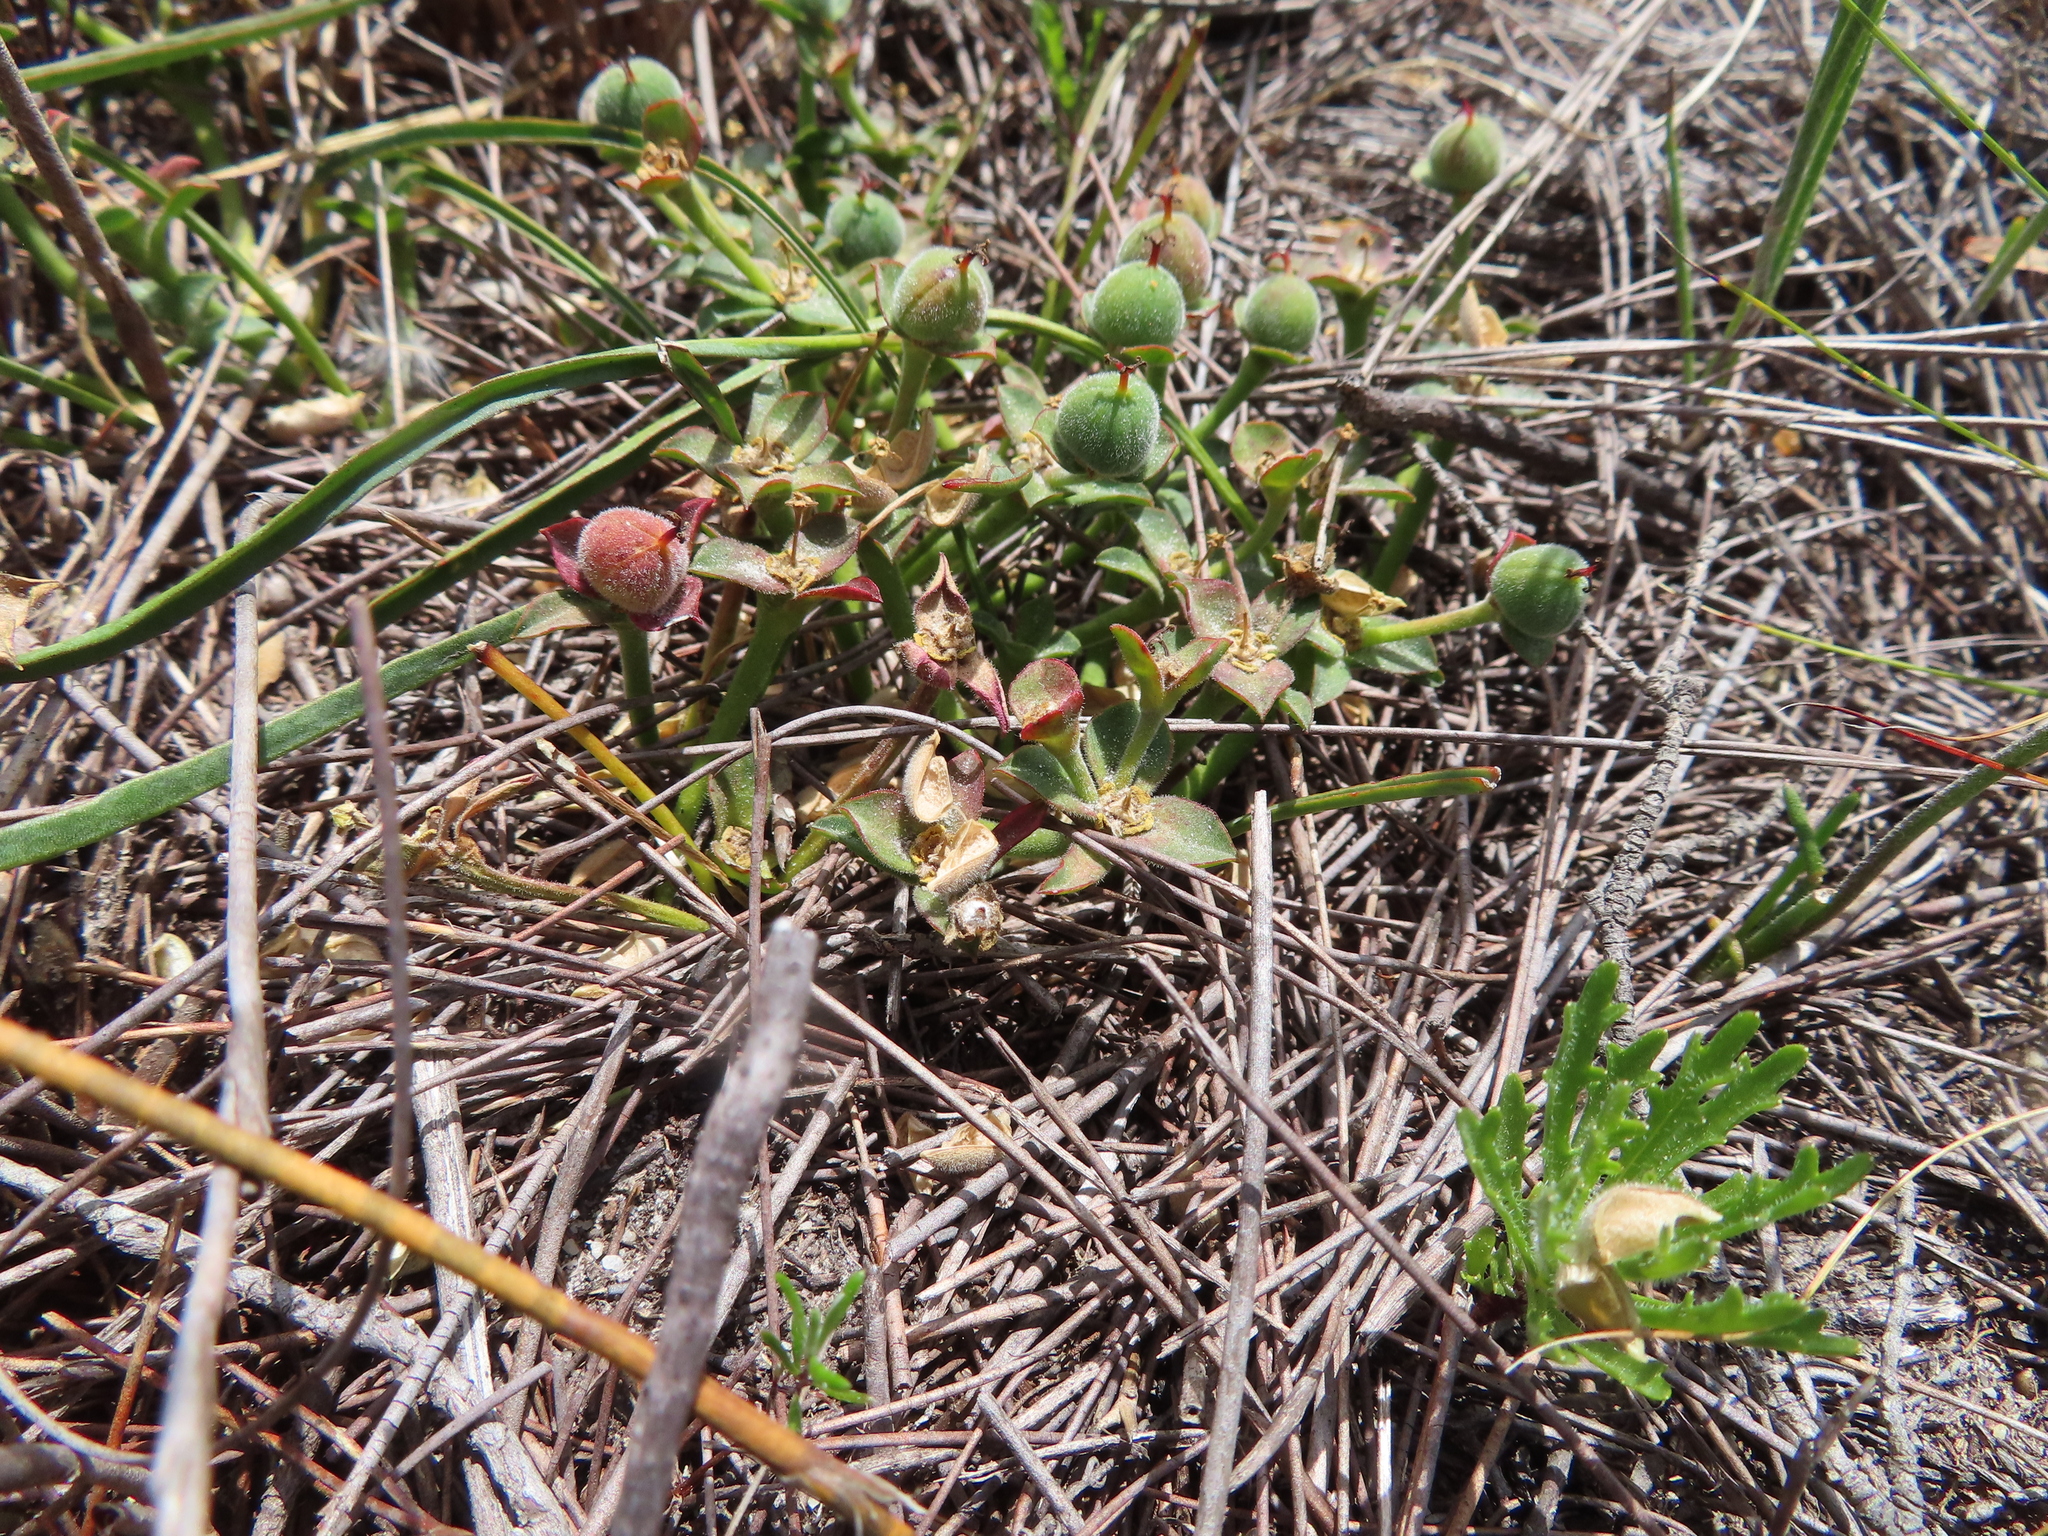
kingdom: Plantae
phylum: Tracheophyta
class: Magnoliopsida
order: Malpighiales
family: Euphorbiaceae
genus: Euphorbia
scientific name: Euphorbia silenifolia
